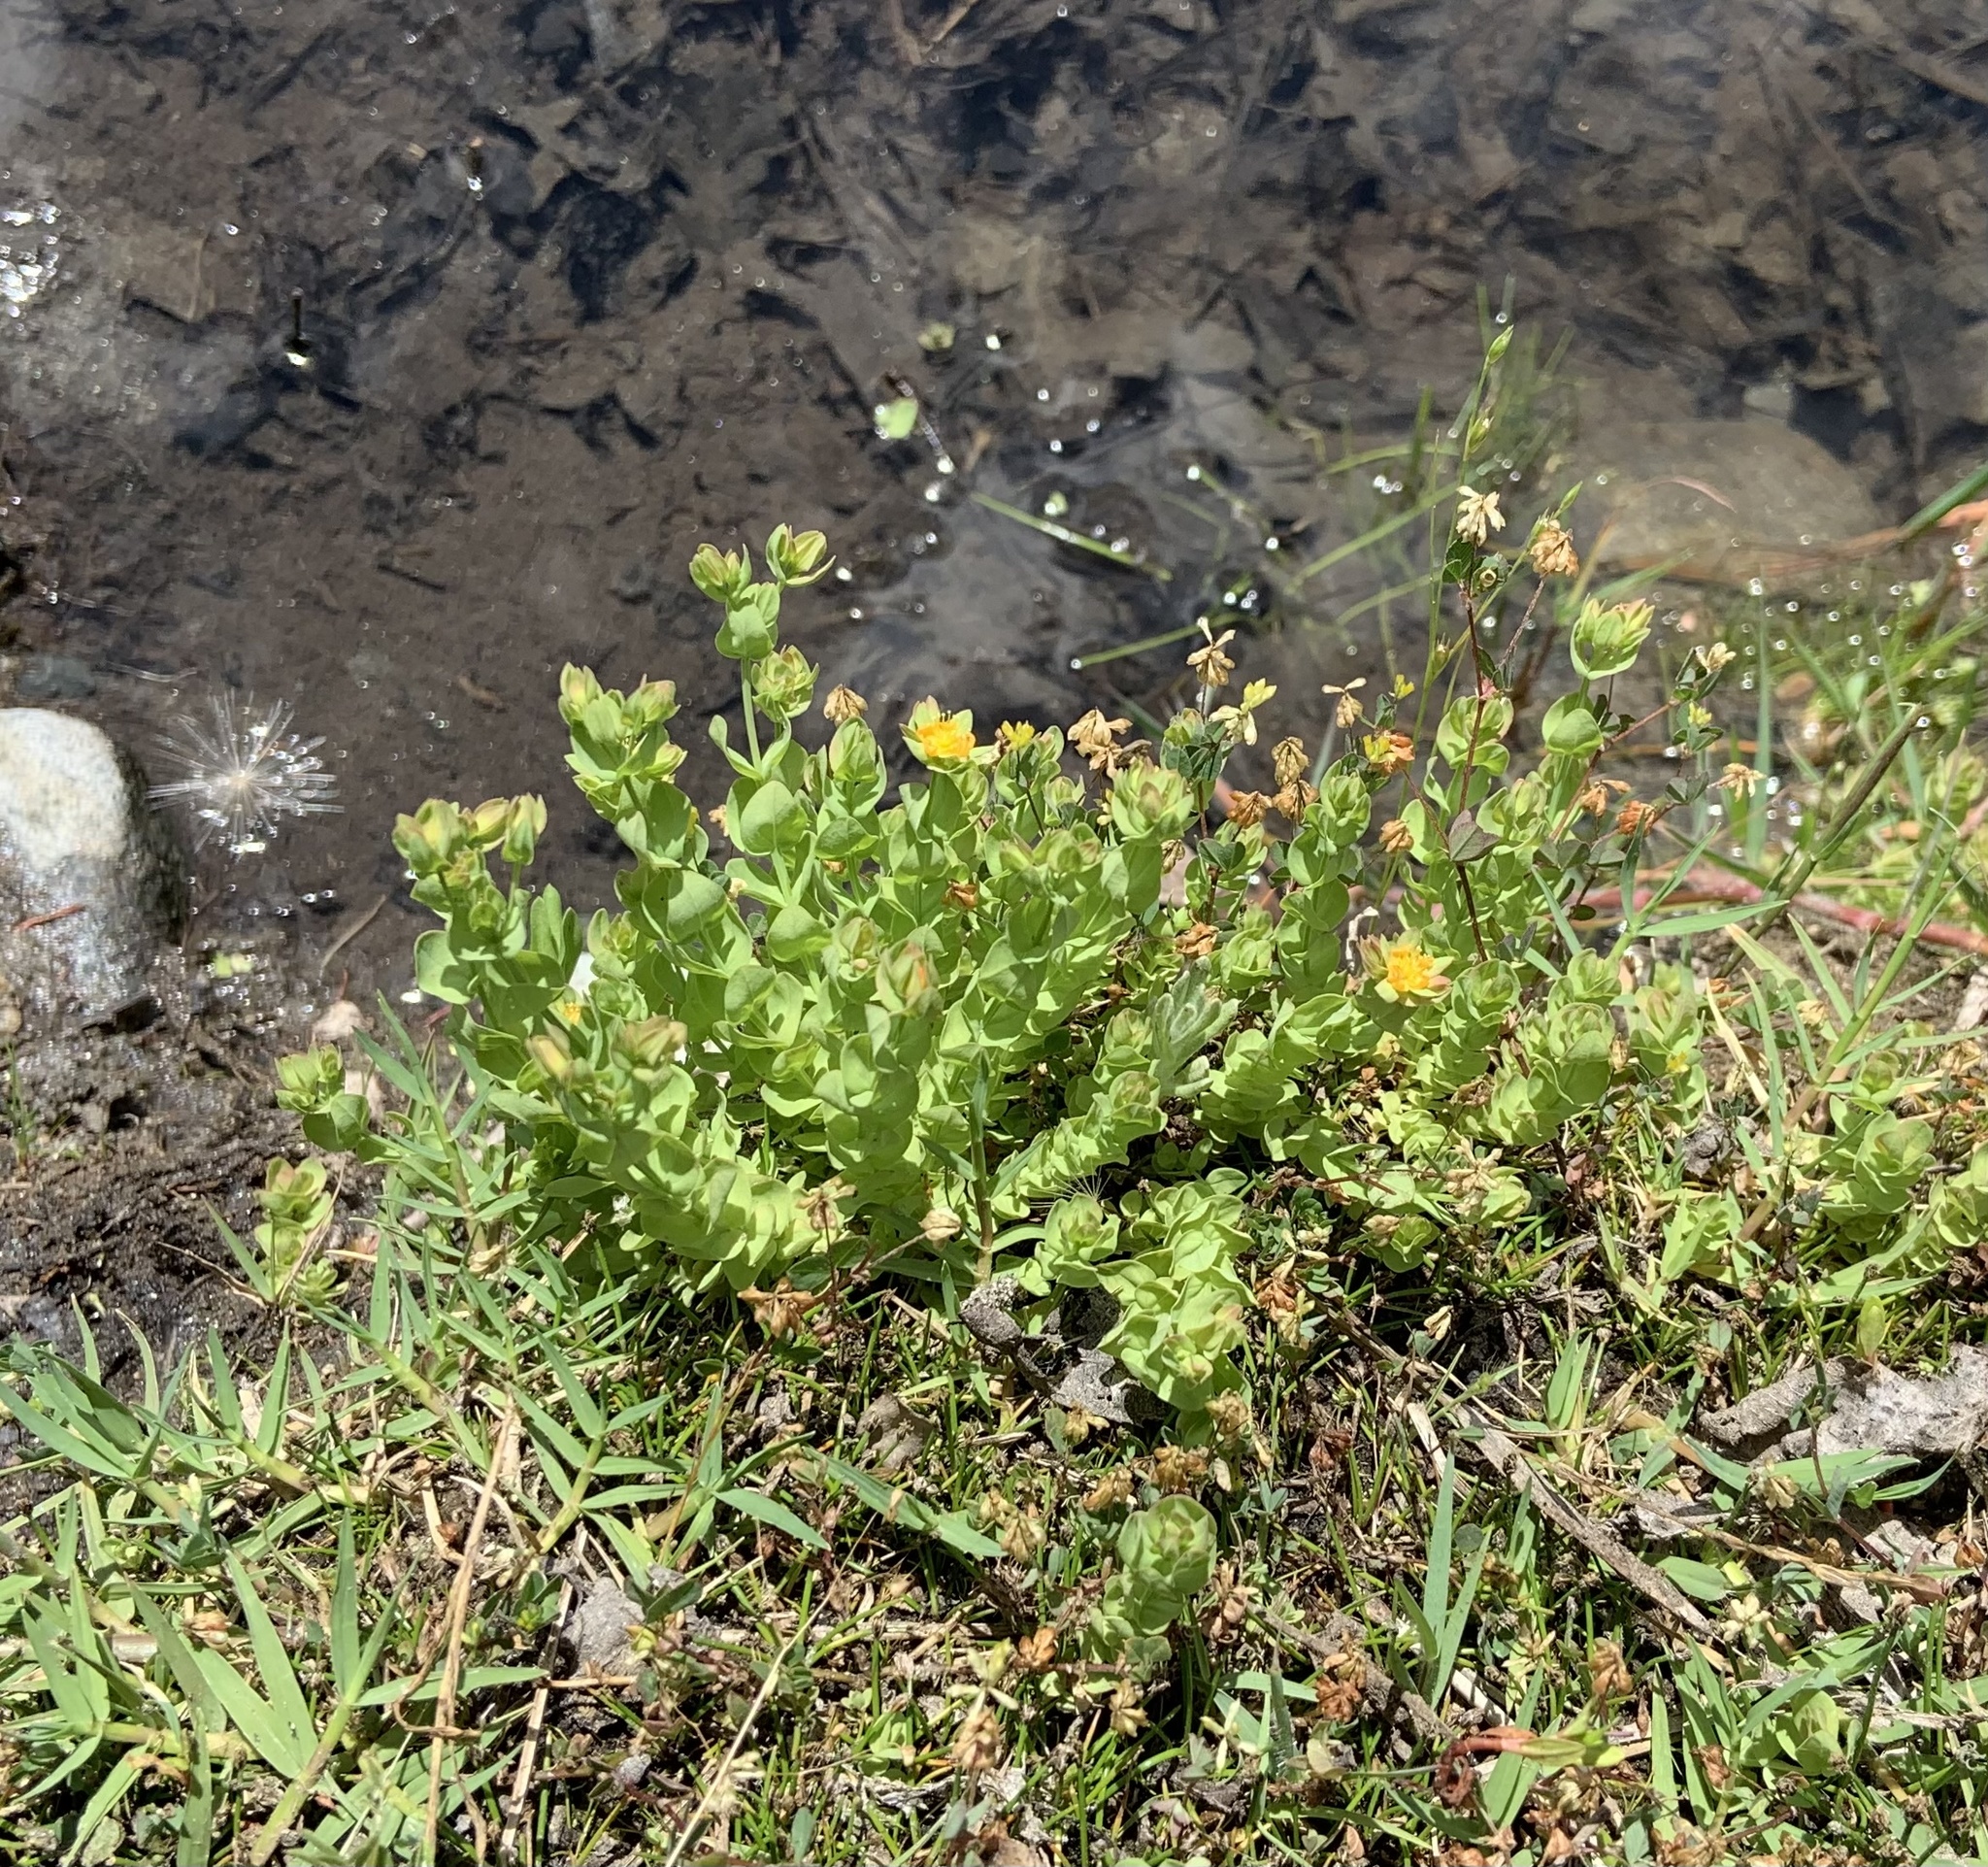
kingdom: Plantae
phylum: Tracheophyta
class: Magnoliopsida
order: Malpighiales
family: Hypericaceae
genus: Hypericum
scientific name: Hypericum anagalloides
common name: Bog st. john's-wort
